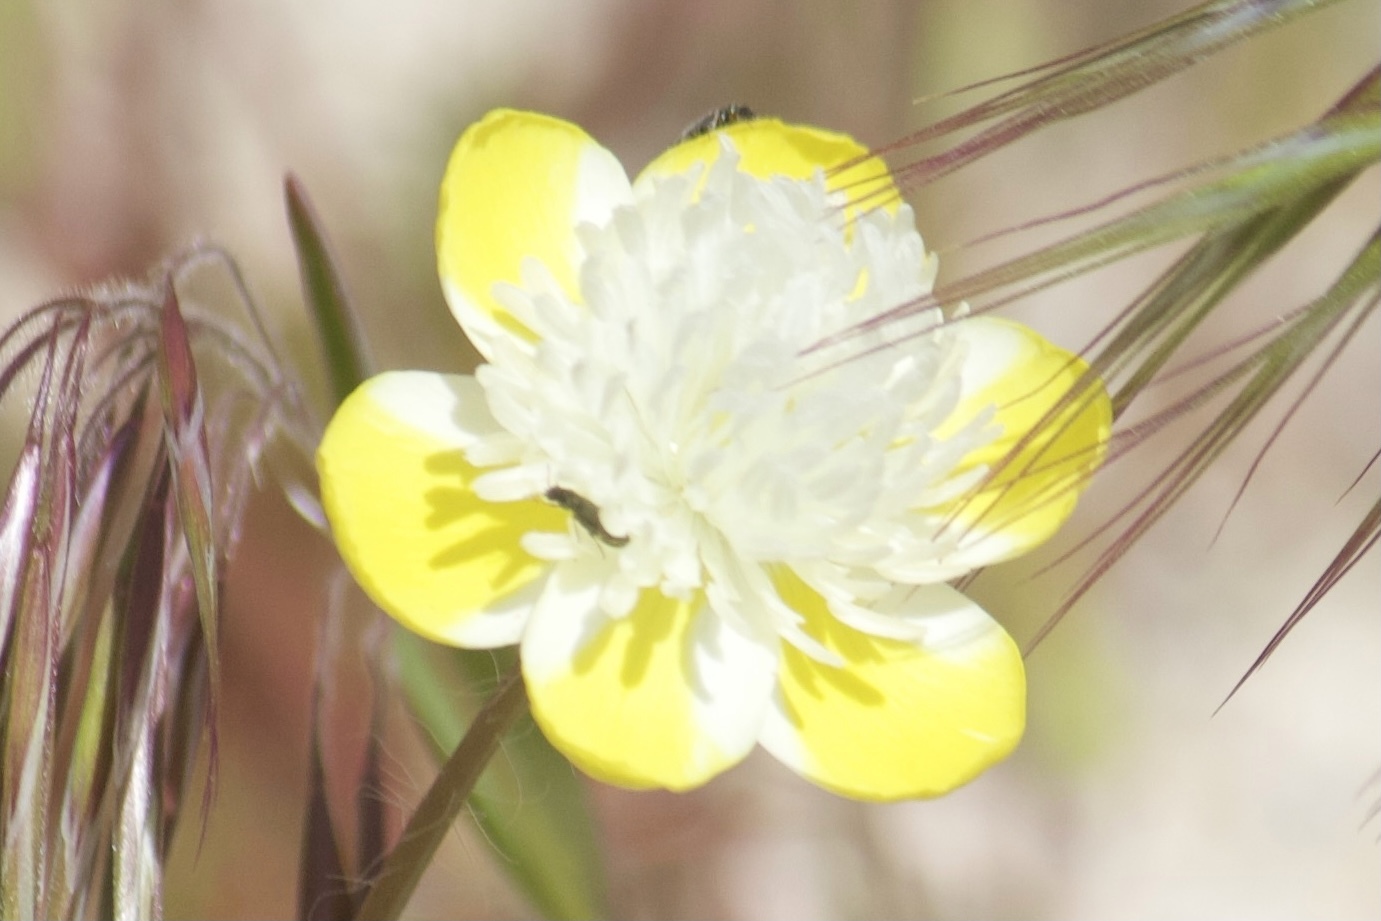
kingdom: Plantae
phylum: Tracheophyta
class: Magnoliopsida
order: Ranunculales
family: Papaveraceae
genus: Platystemon
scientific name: Platystemon californicus
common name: Cream-cups
